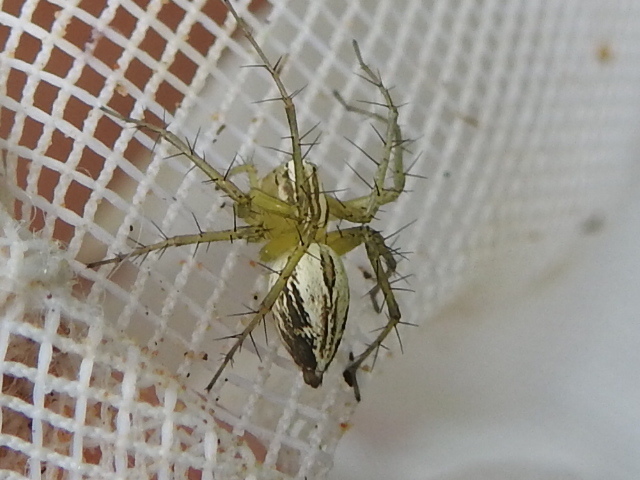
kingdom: Animalia
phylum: Arthropoda
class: Arachnida
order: Araneae
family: Oxyopidae
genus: Oxyopes
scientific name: Oxyopes salticus
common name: Lynx spiders
